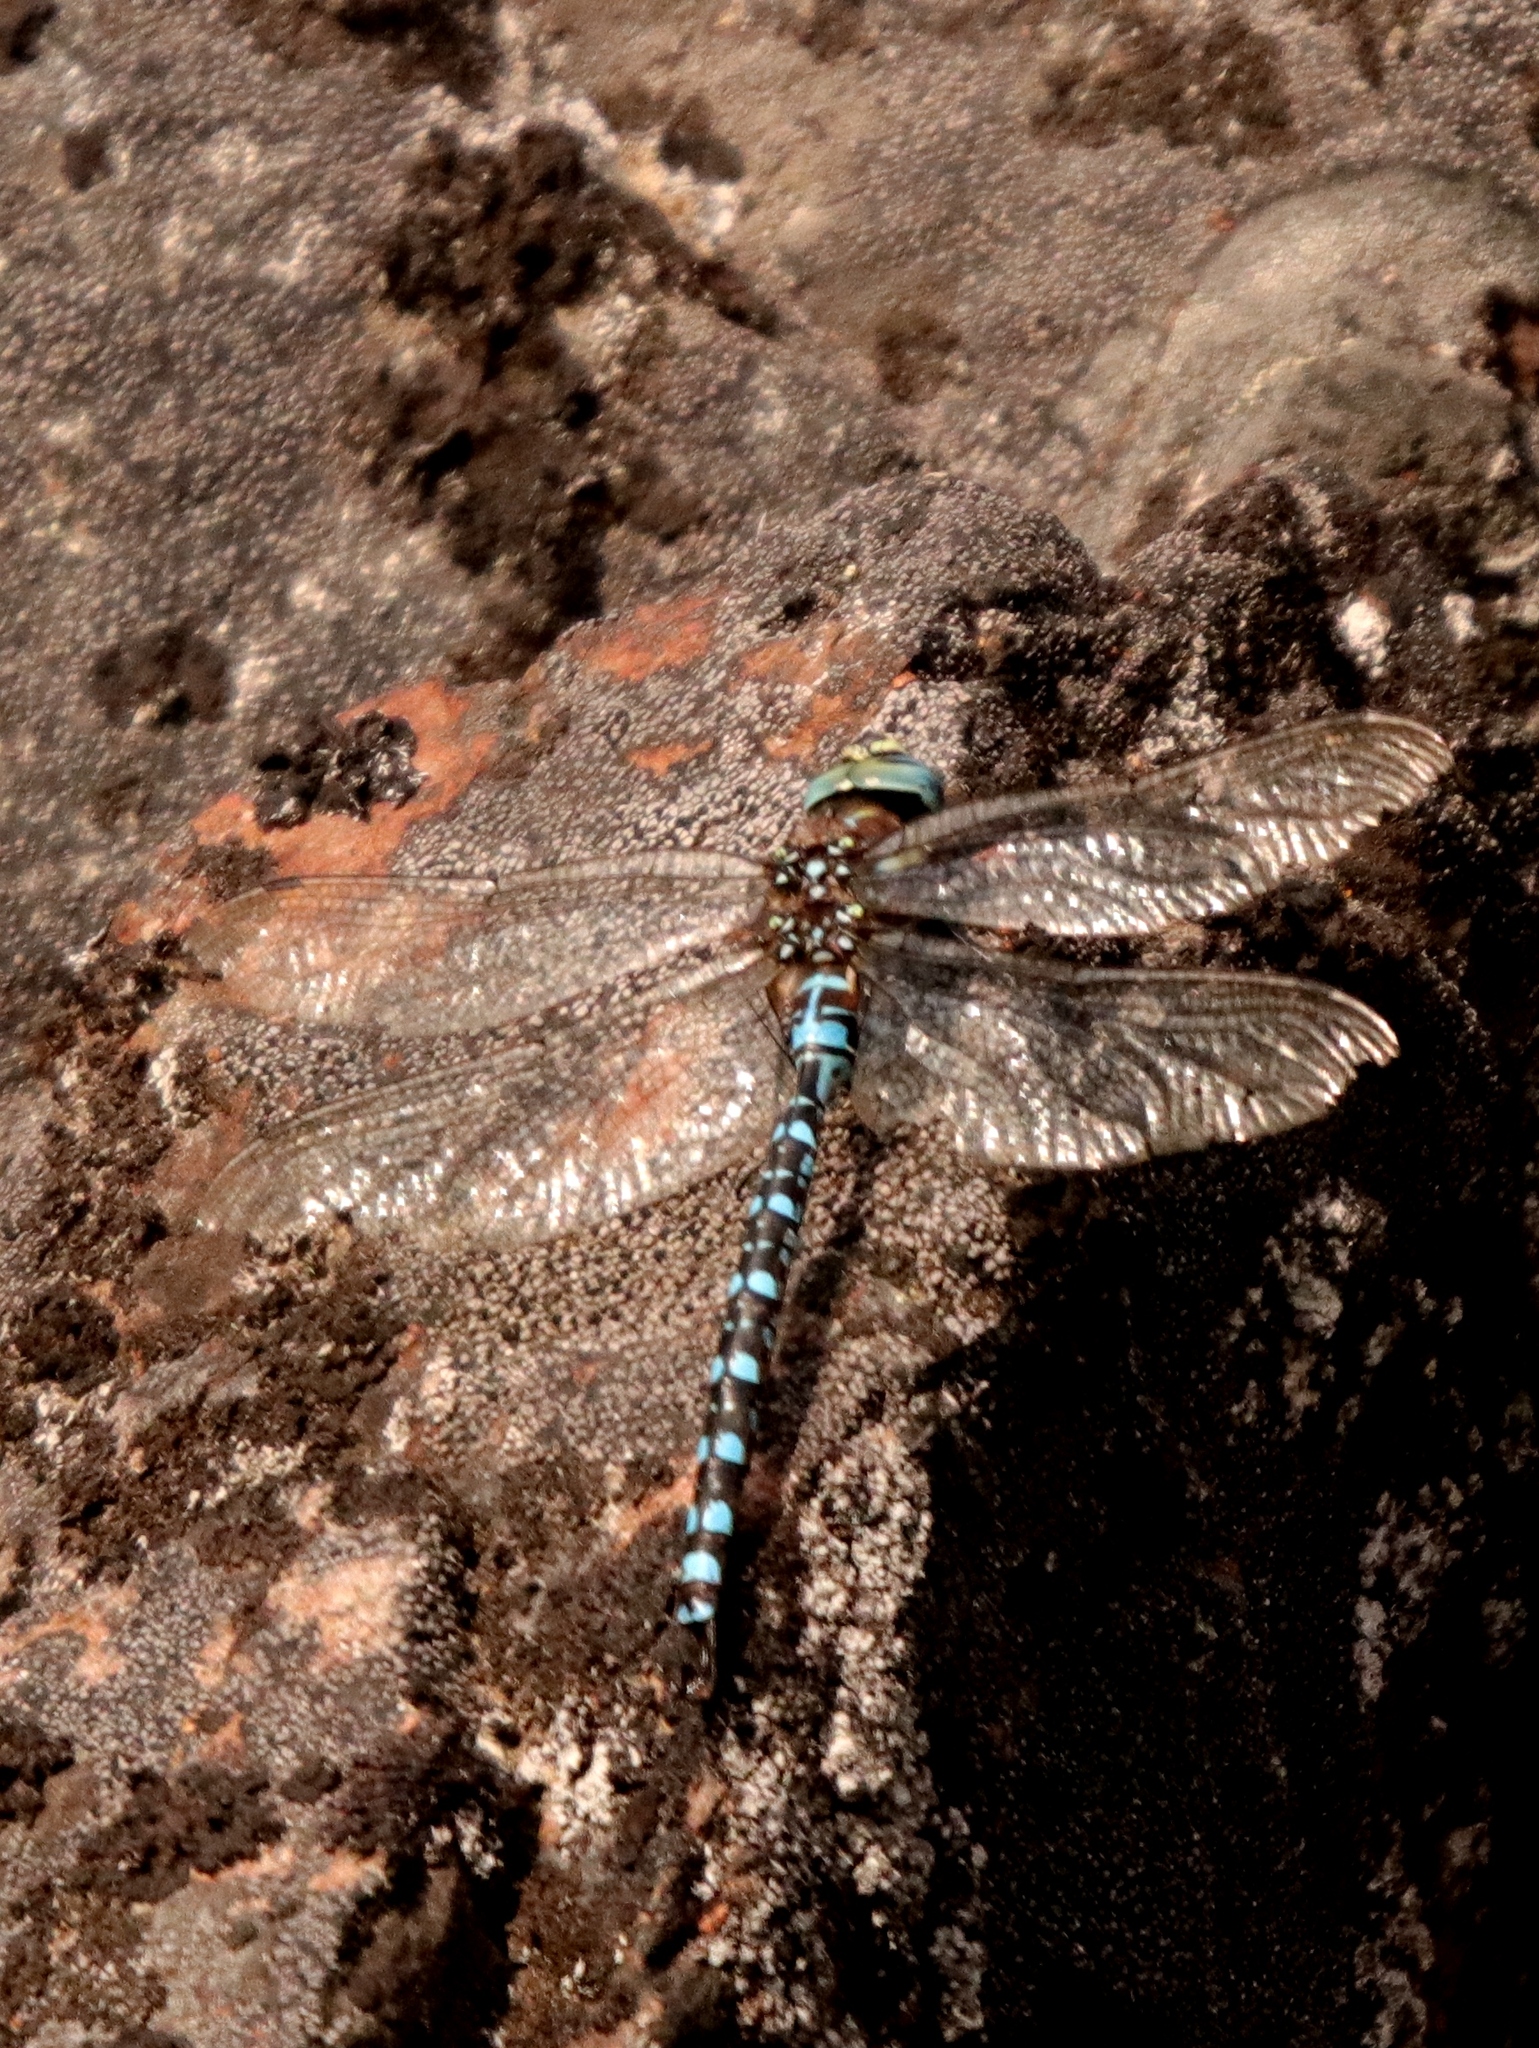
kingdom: Animalia
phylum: Arthropoda
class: Insecta
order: Odonata
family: Aeshnidae
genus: Aeshna
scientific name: Aeshna palmata
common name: Paddle-tailed darner
